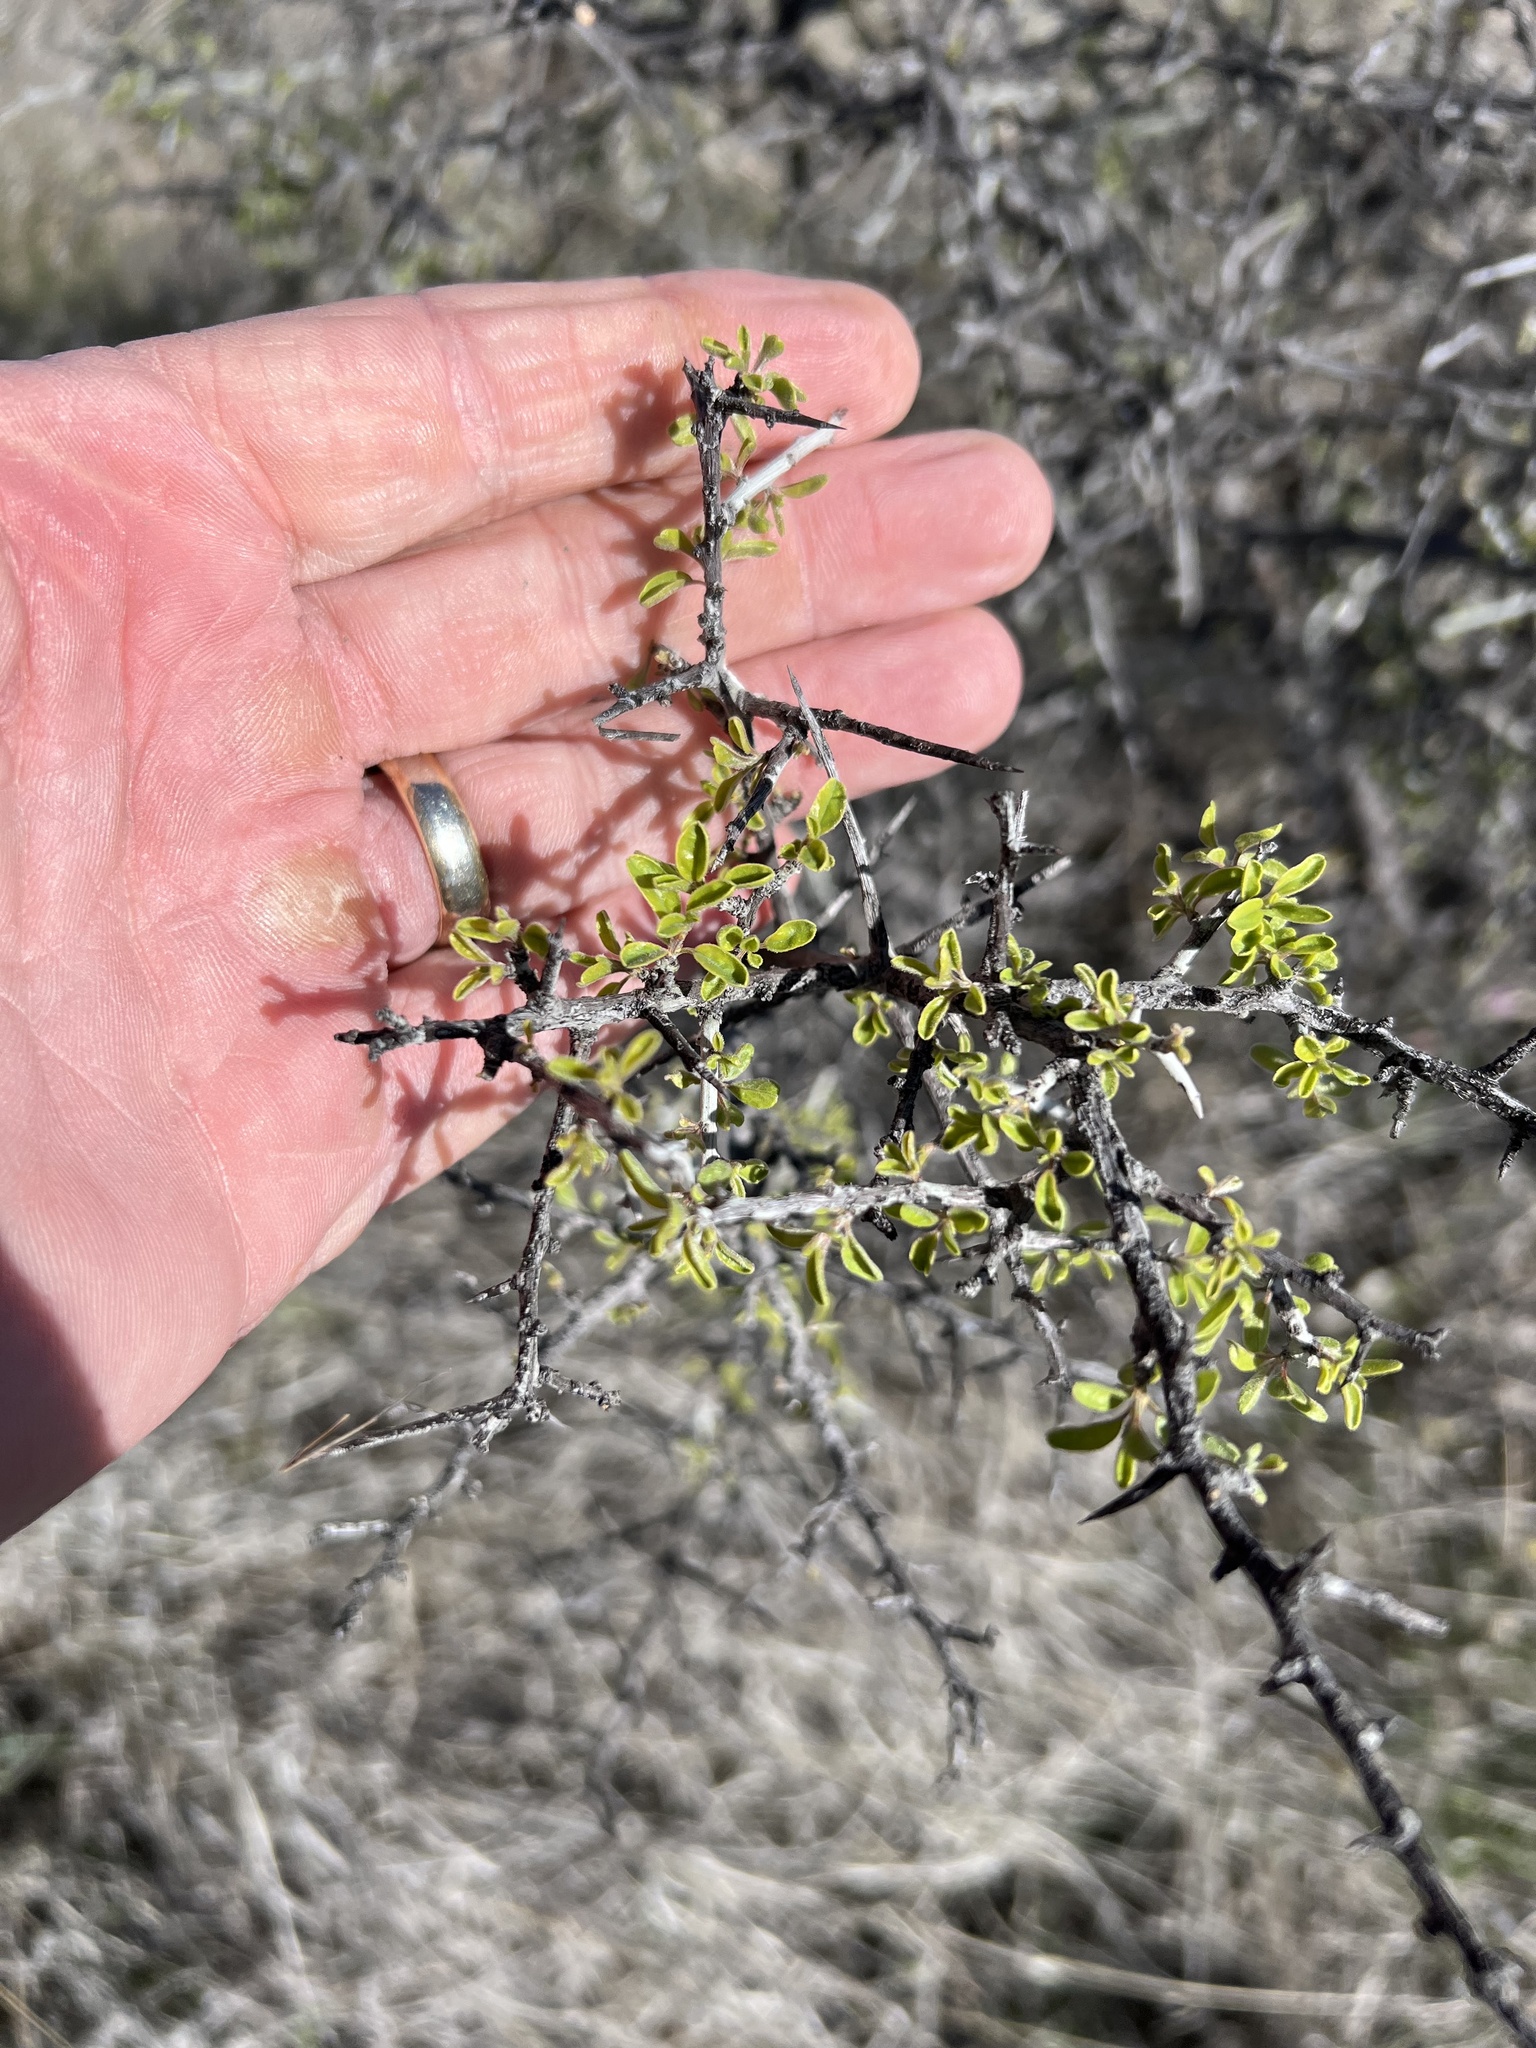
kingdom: Plantae
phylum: Tracheophyta
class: Magnoliopsida
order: Rosales
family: Rhamnaceae
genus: Condalia
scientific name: Condalia warnockii
